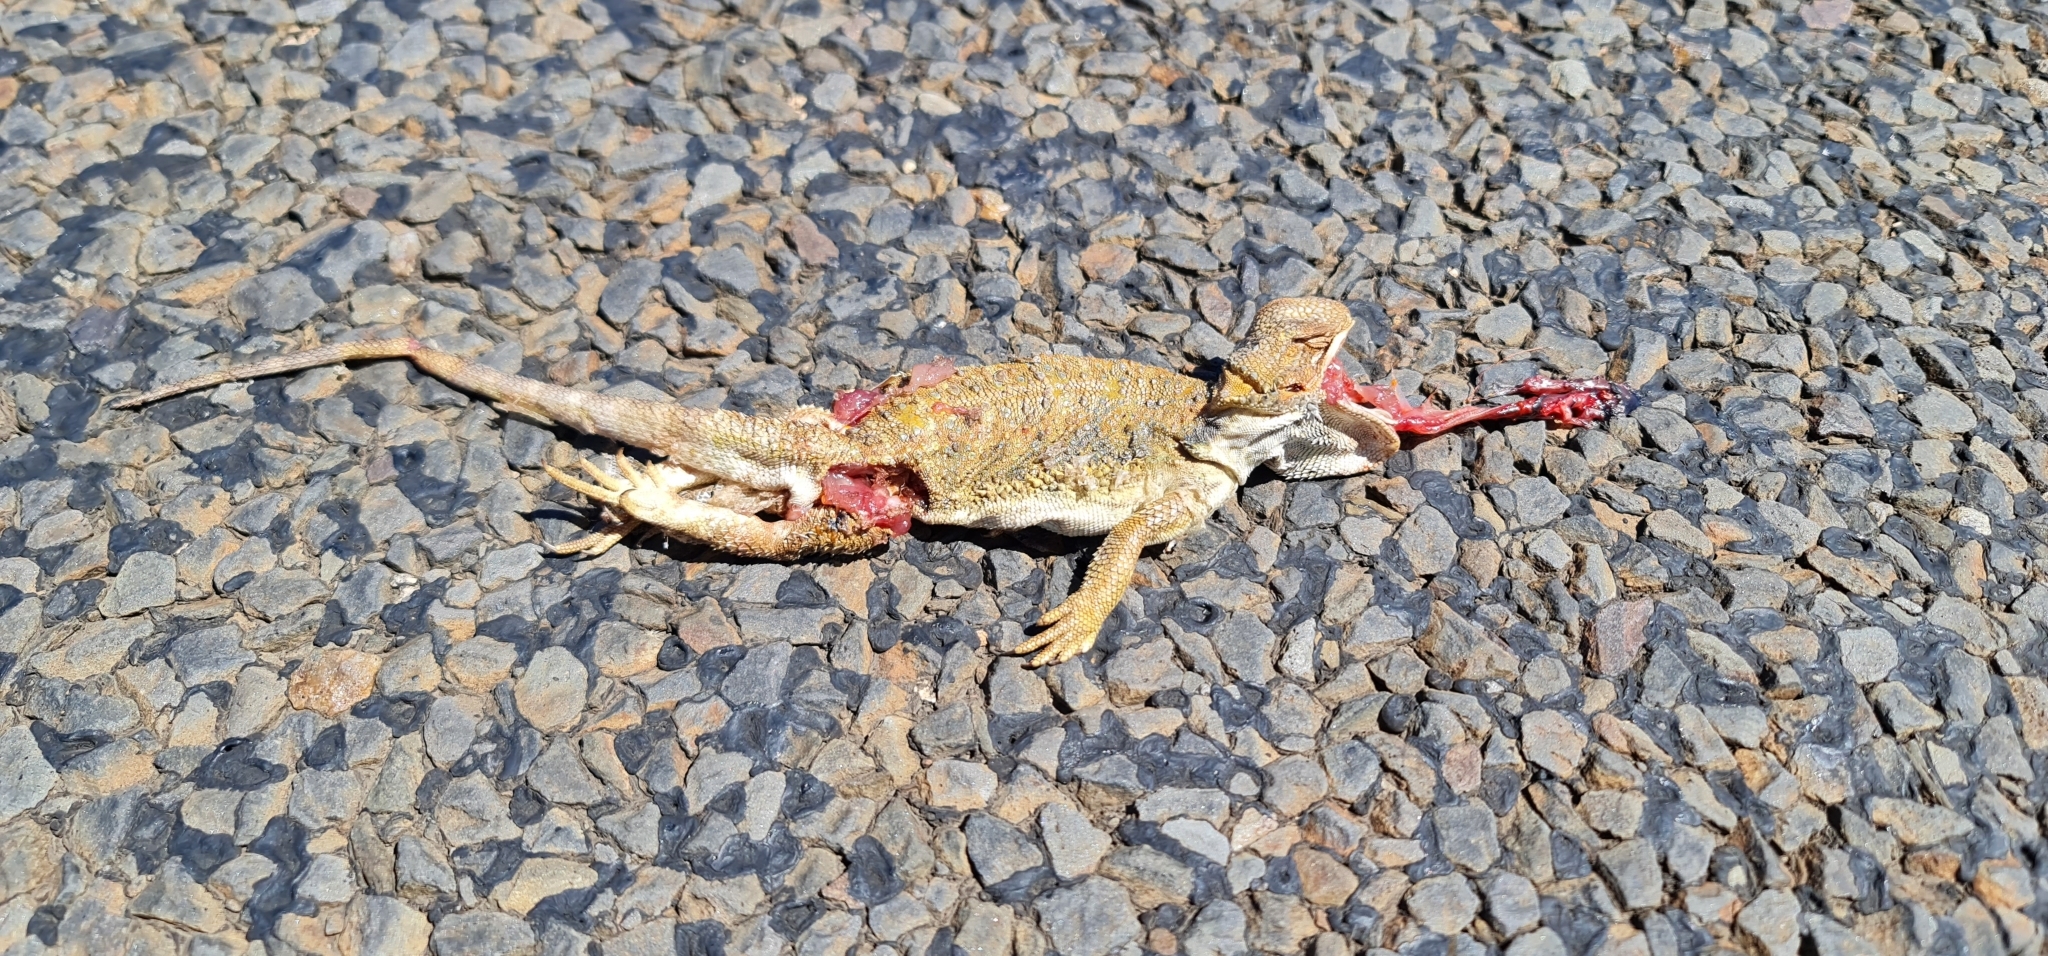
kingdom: Animalia
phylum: Chordata
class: Squamata
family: Agamidae
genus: Pogona
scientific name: Pogona vitticeps
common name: Central bearded dragon
